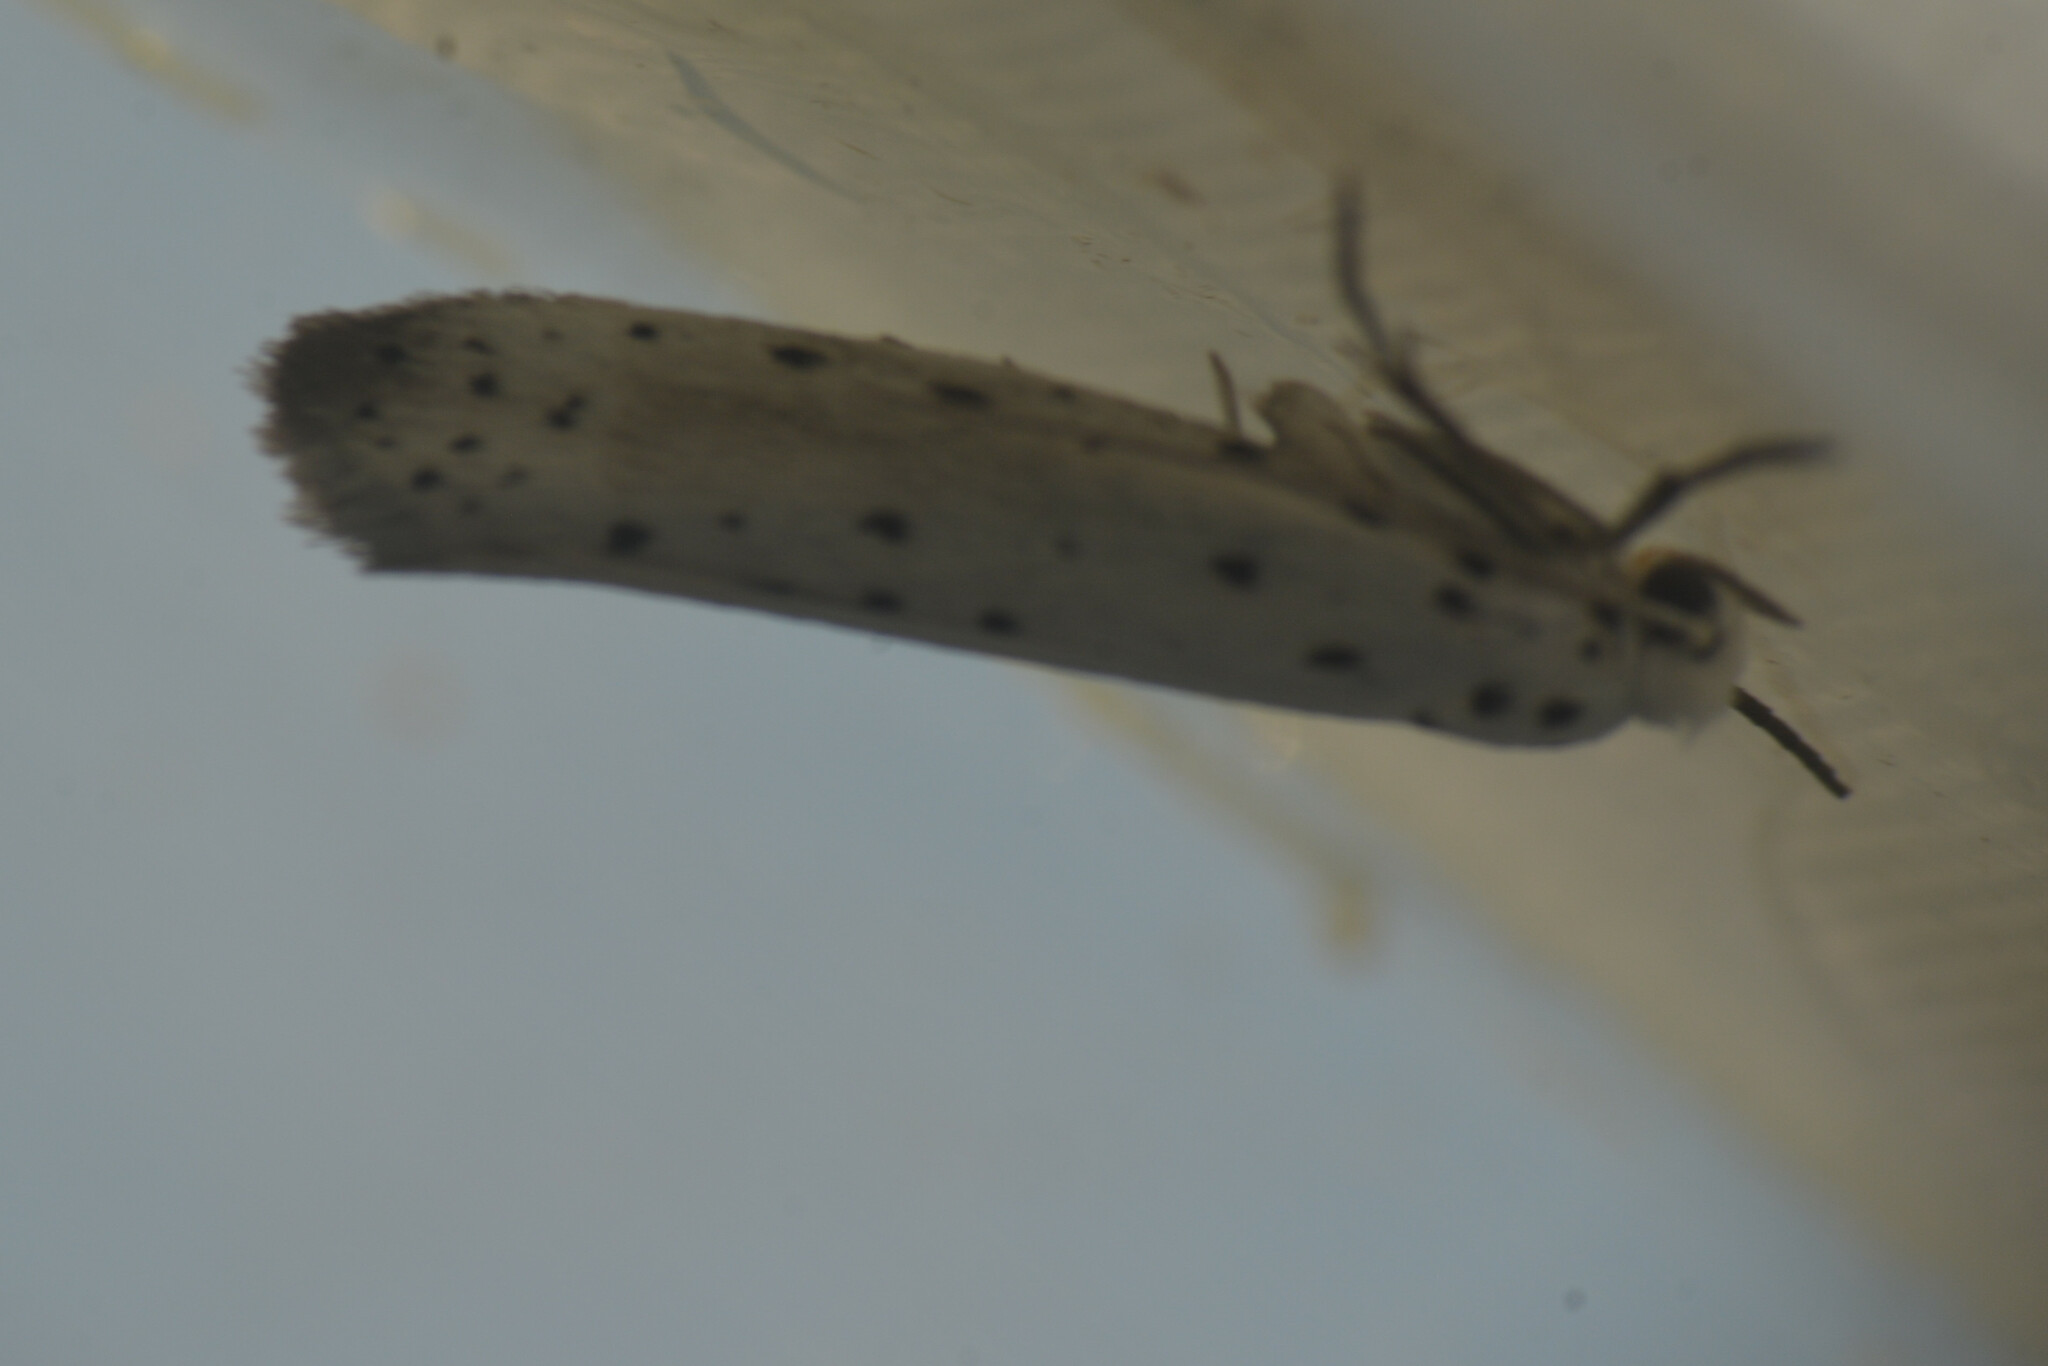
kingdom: Animalia
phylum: Arthropoda
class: Insecta
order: Lepidoptera
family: Yponomeutidae
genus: Yponomeuta
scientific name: Yponomeuta
